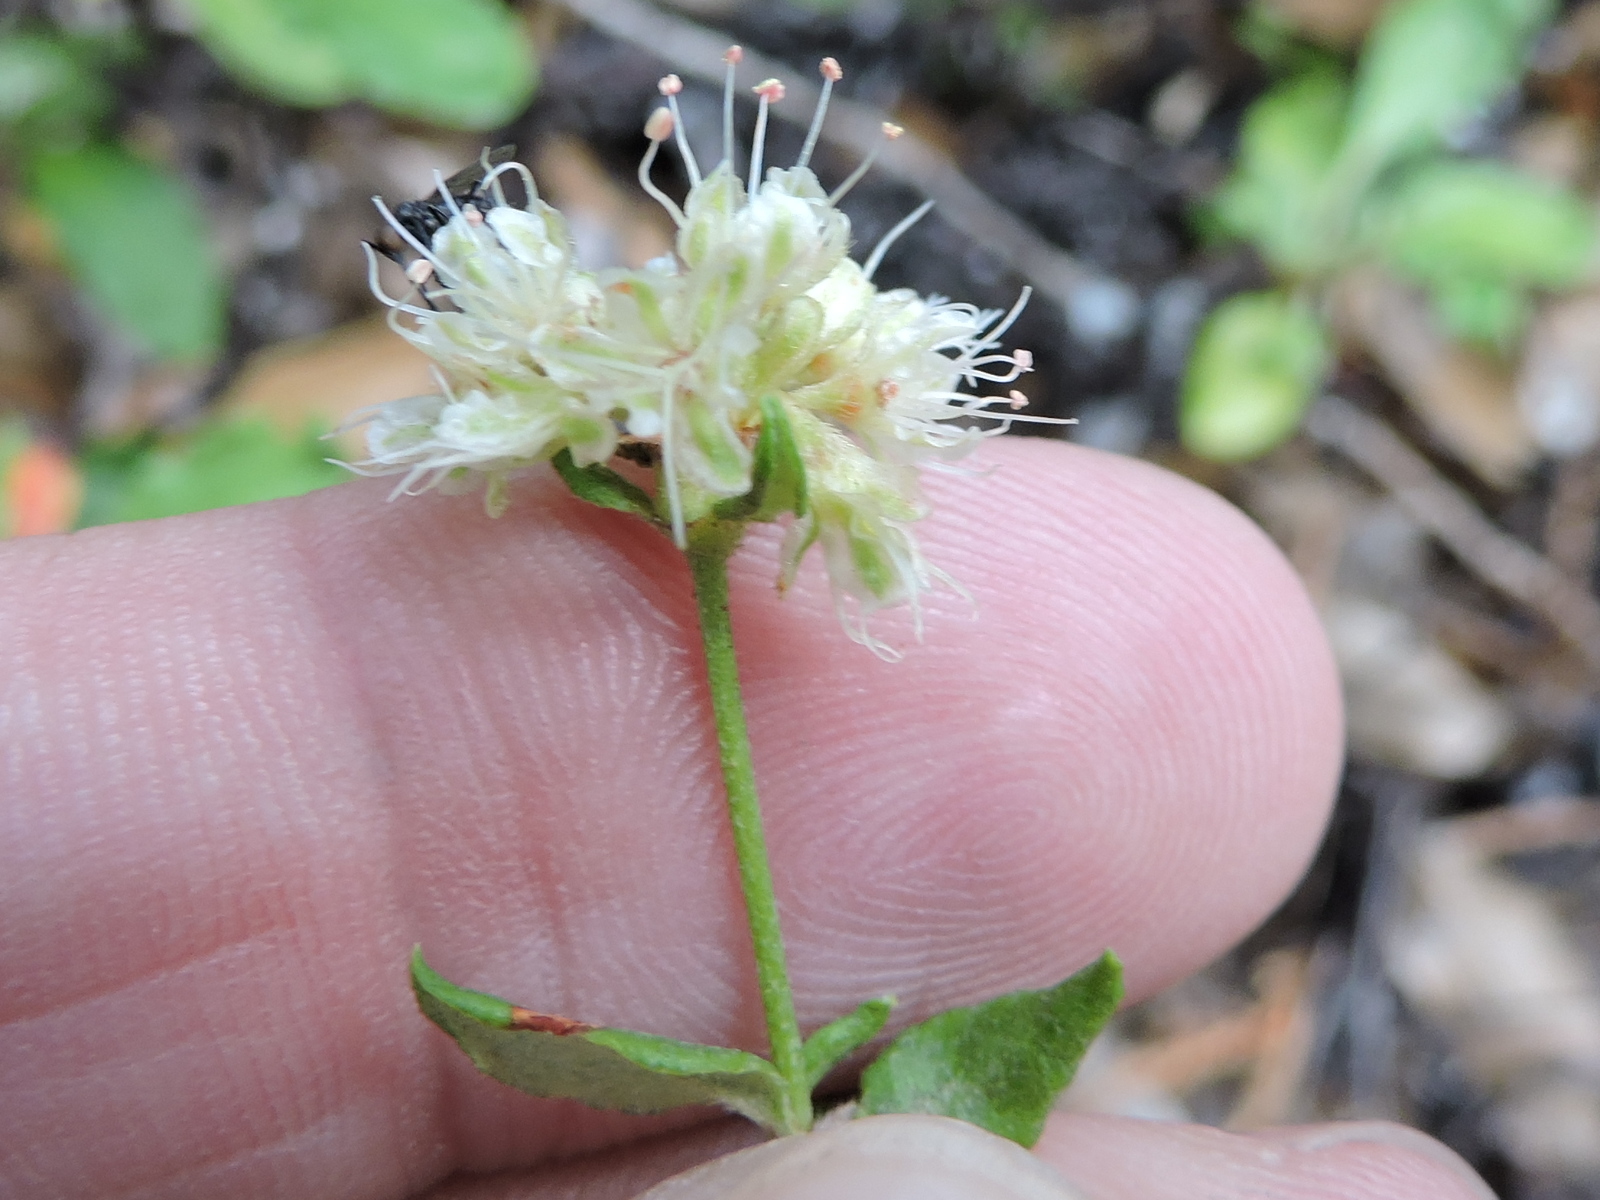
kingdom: Plantae
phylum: Tracheophyta
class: Magnoliopsida
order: Caryophyllales
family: Polygonaceae
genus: Eriogonum
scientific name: Eriogonum jamesii
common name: Antelope-sage
